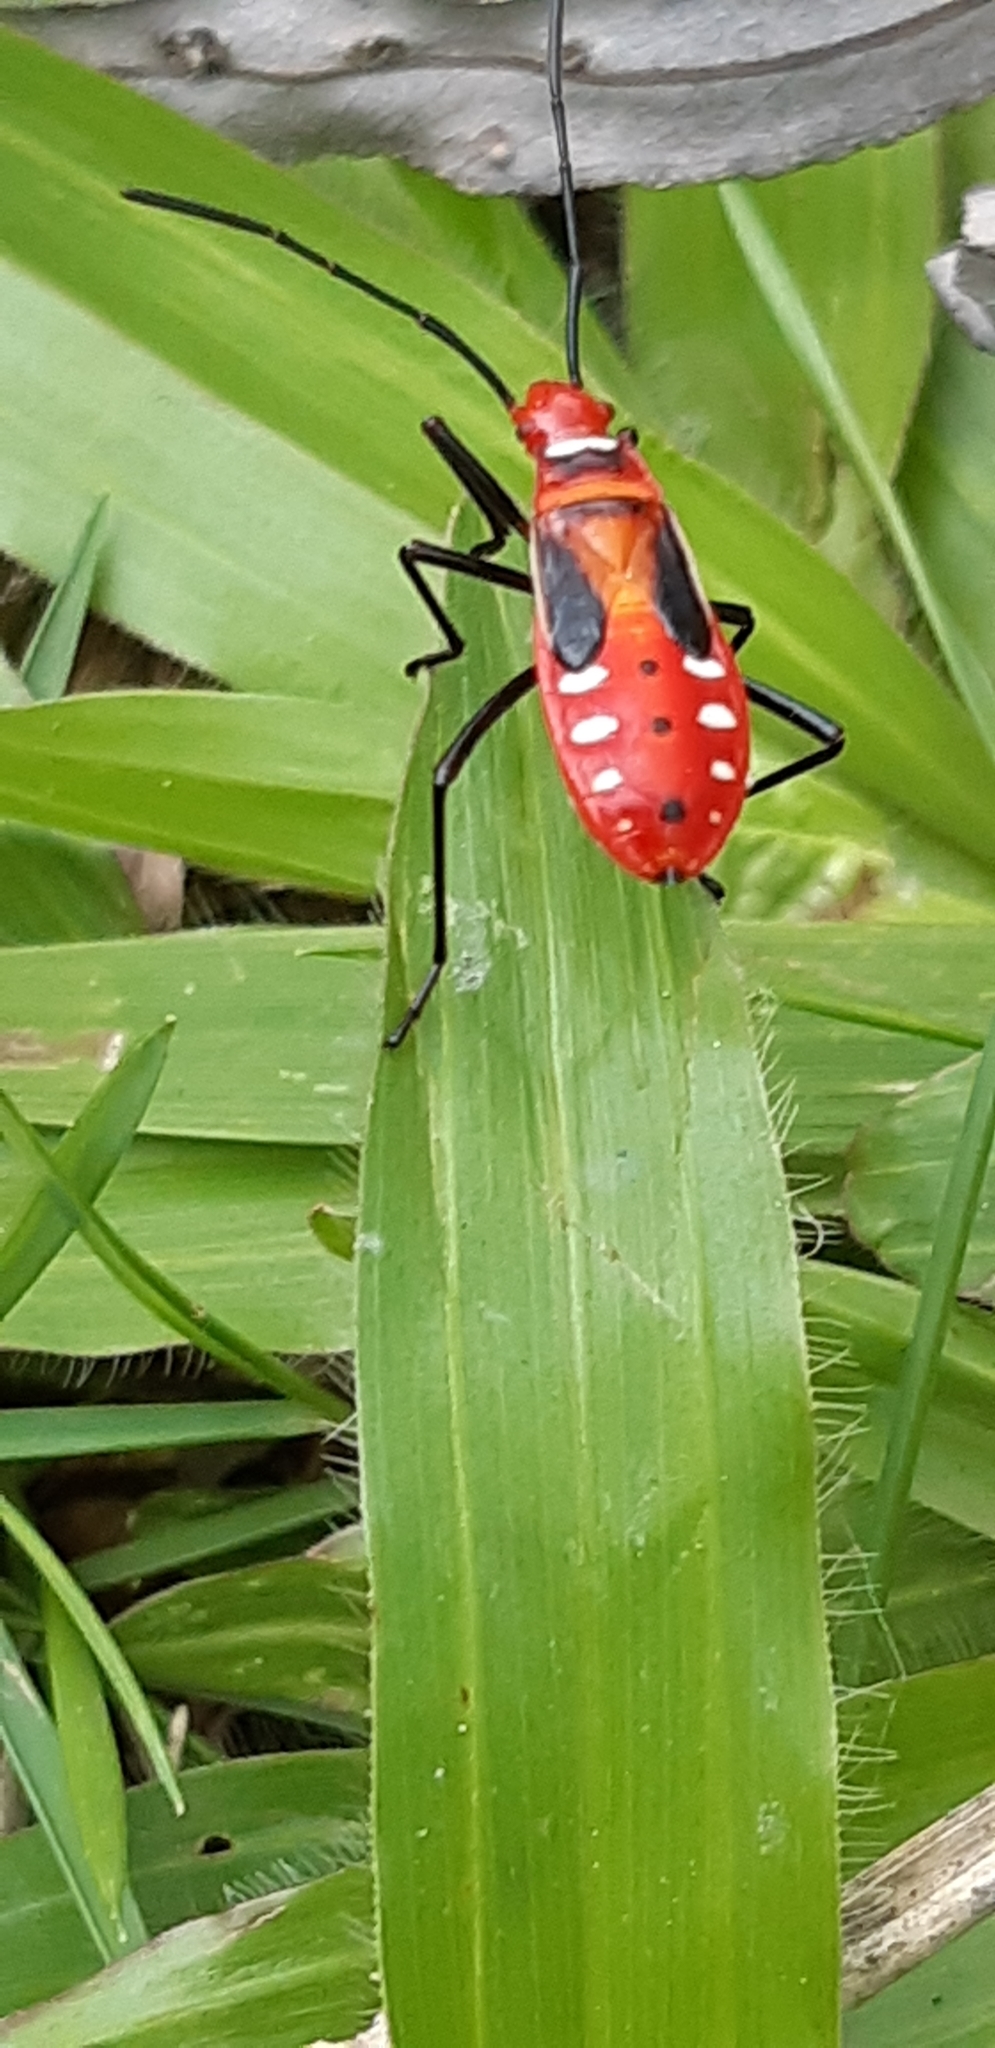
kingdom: Animalia
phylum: Arthropoda
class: Insecta
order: Hemiptera
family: Pyrrhocoridae
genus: Dysdercus
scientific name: Dysdercus cingulatus
